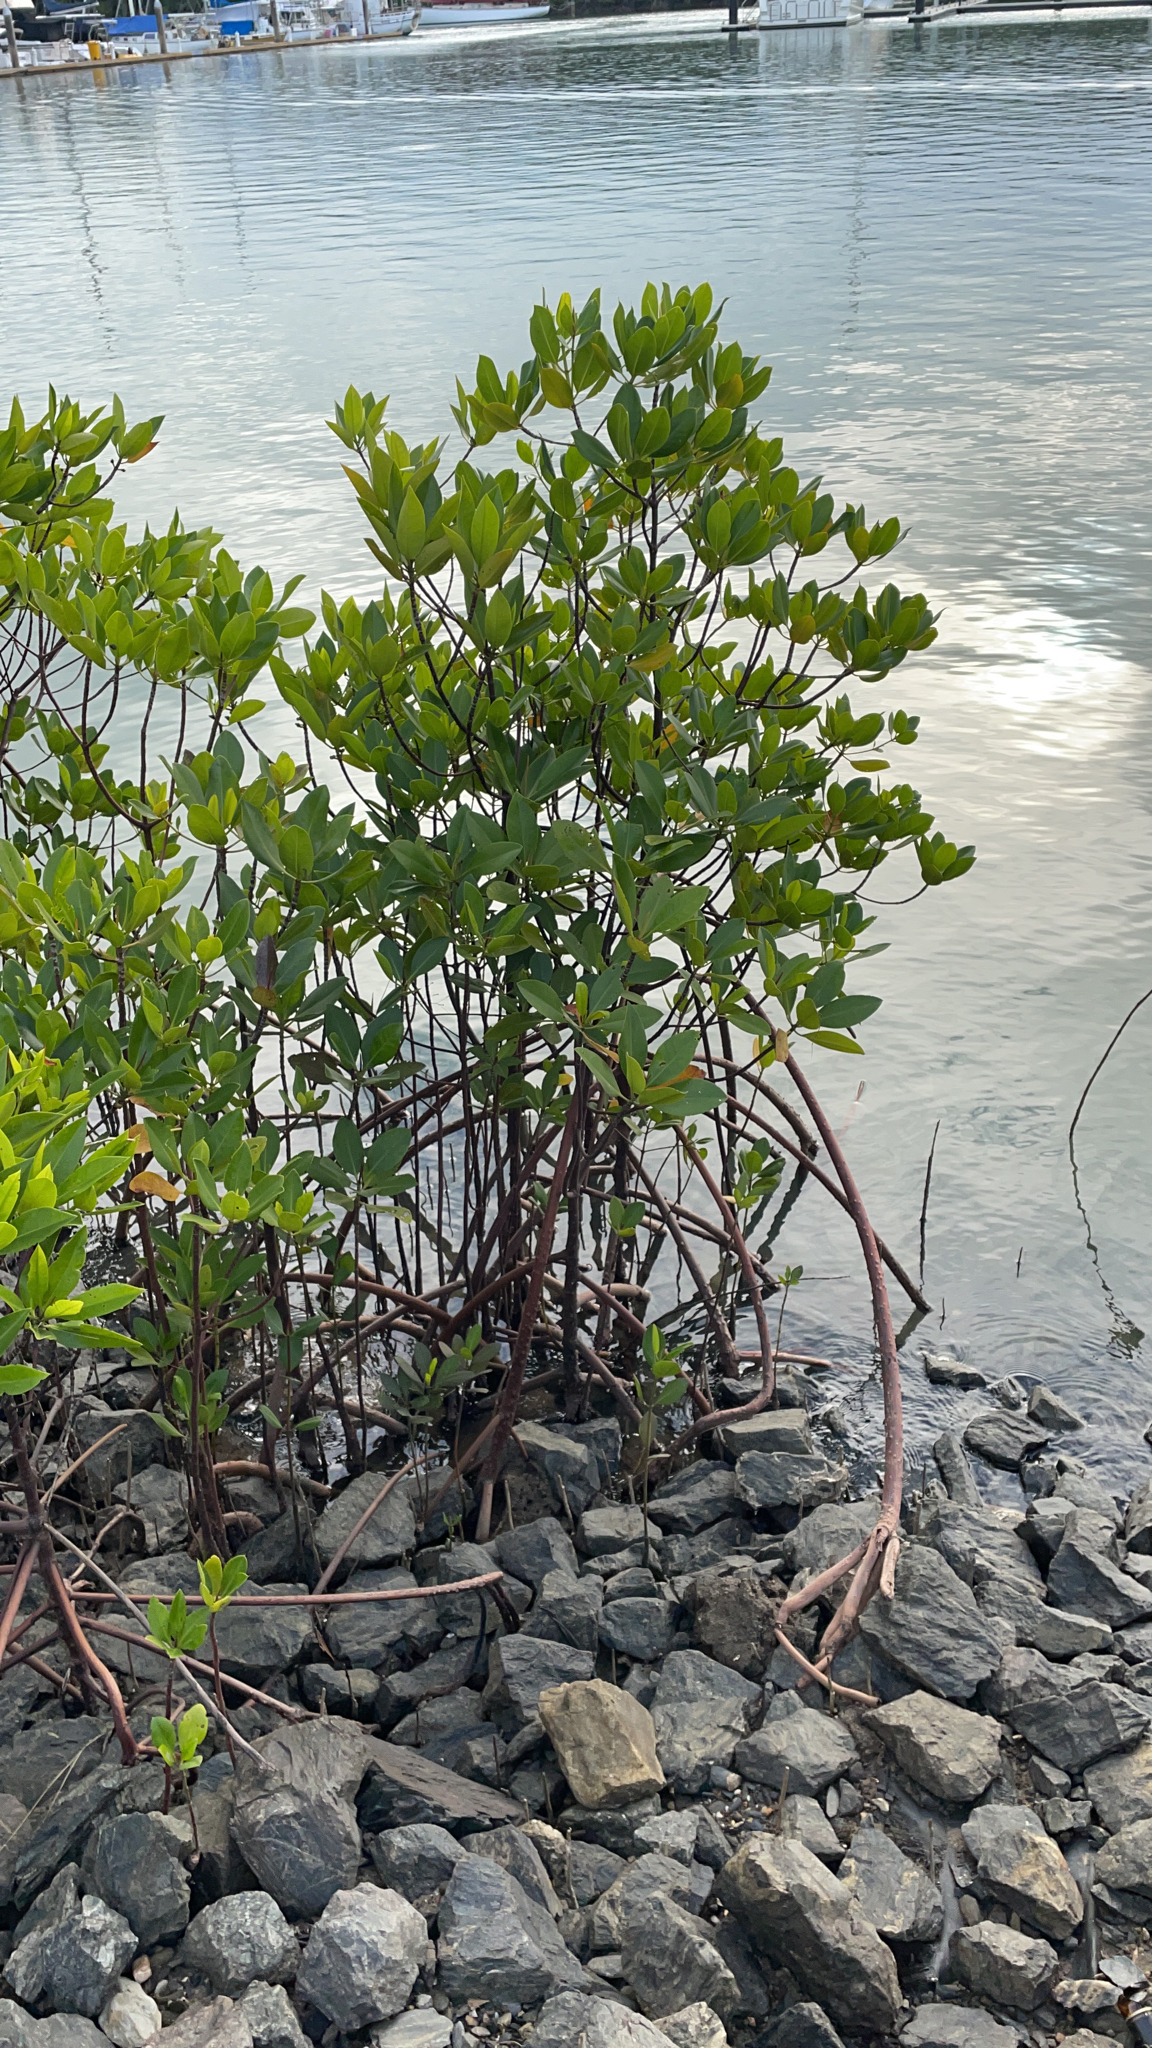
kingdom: Plantae
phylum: Tracheophyta
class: Magnoliopsida
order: Malpighiales
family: Rhizophoraceae
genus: Rhizophora
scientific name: Rhizophora stylosa
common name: Red mangrove
